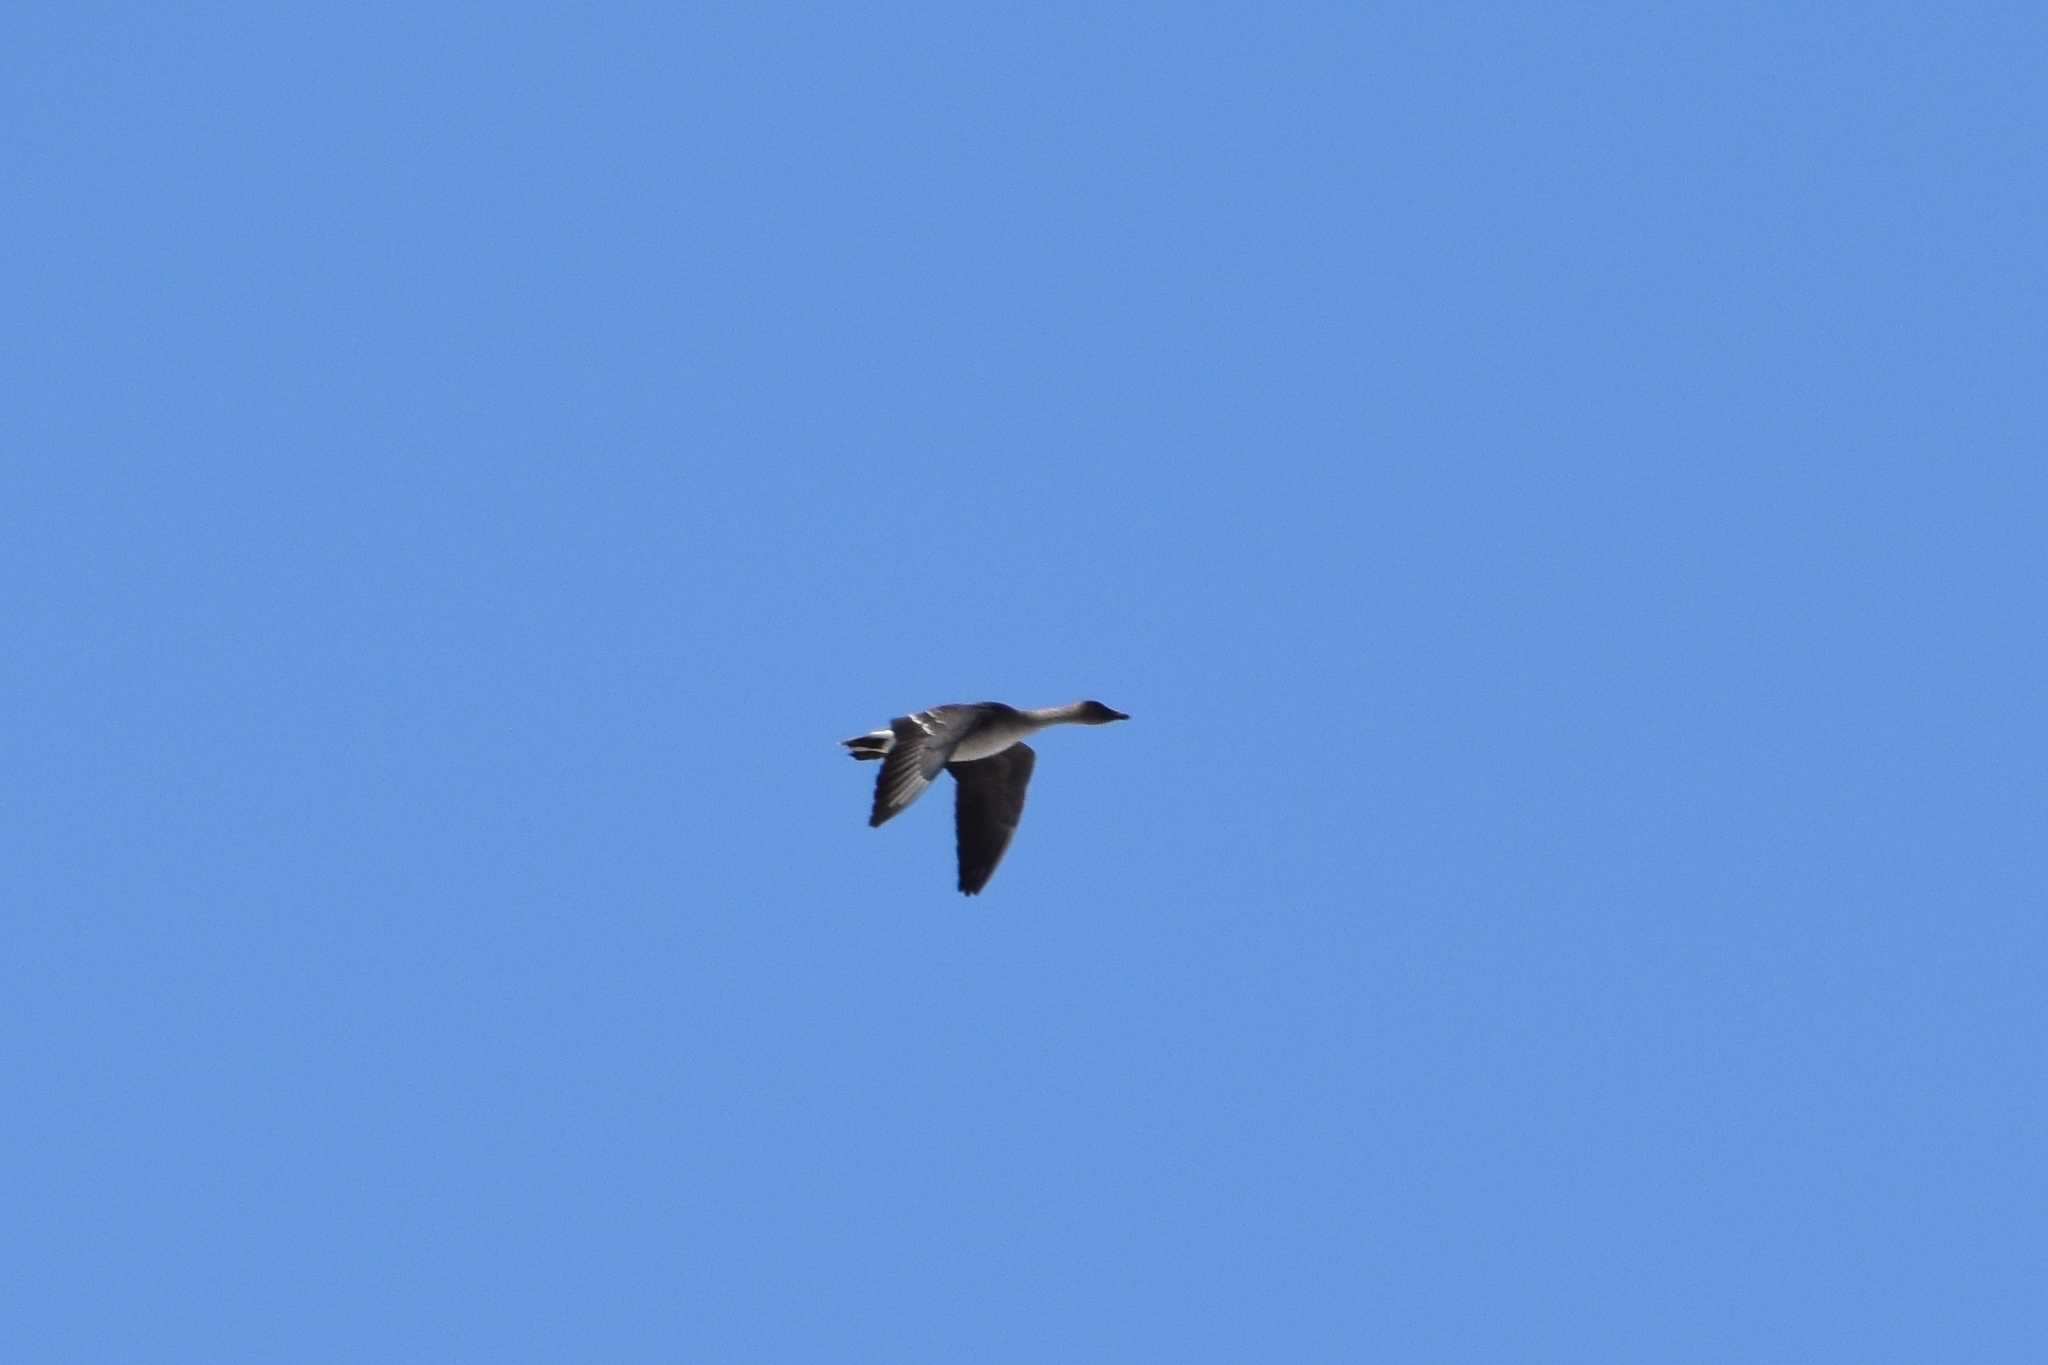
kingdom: Animalia
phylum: Chordata
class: Aves
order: Anseriformes
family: Anatidae
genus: Anser
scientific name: Anser fabalis
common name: Bean goose
